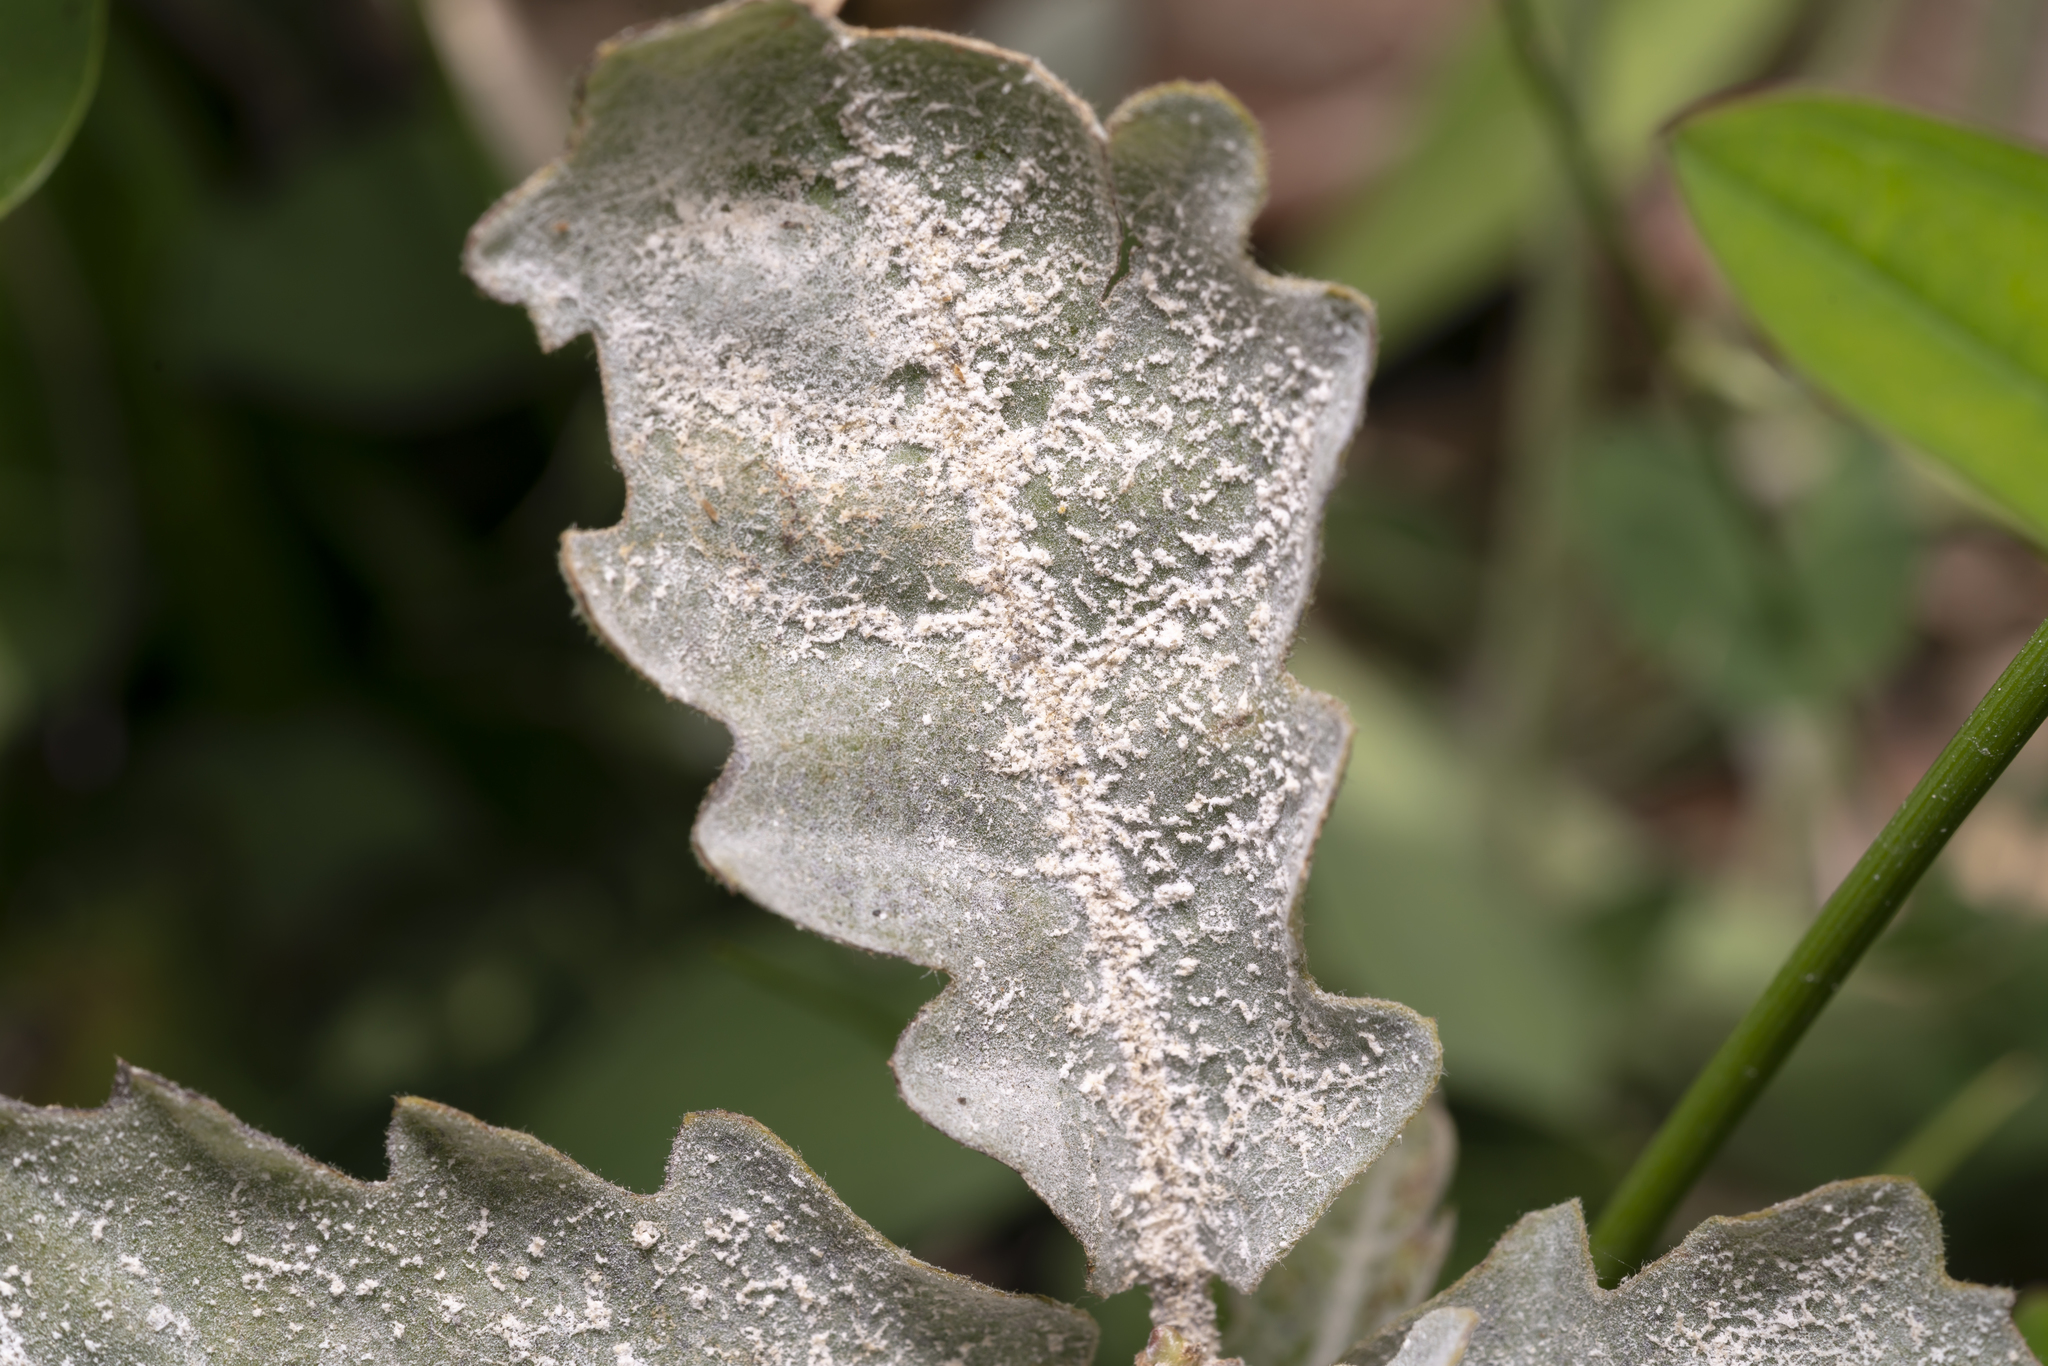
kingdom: Fungi
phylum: Ascomycota
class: Leotiomycetes
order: Helotiales
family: Erysiphaceae
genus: Erysiphe
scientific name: Erysiphe
